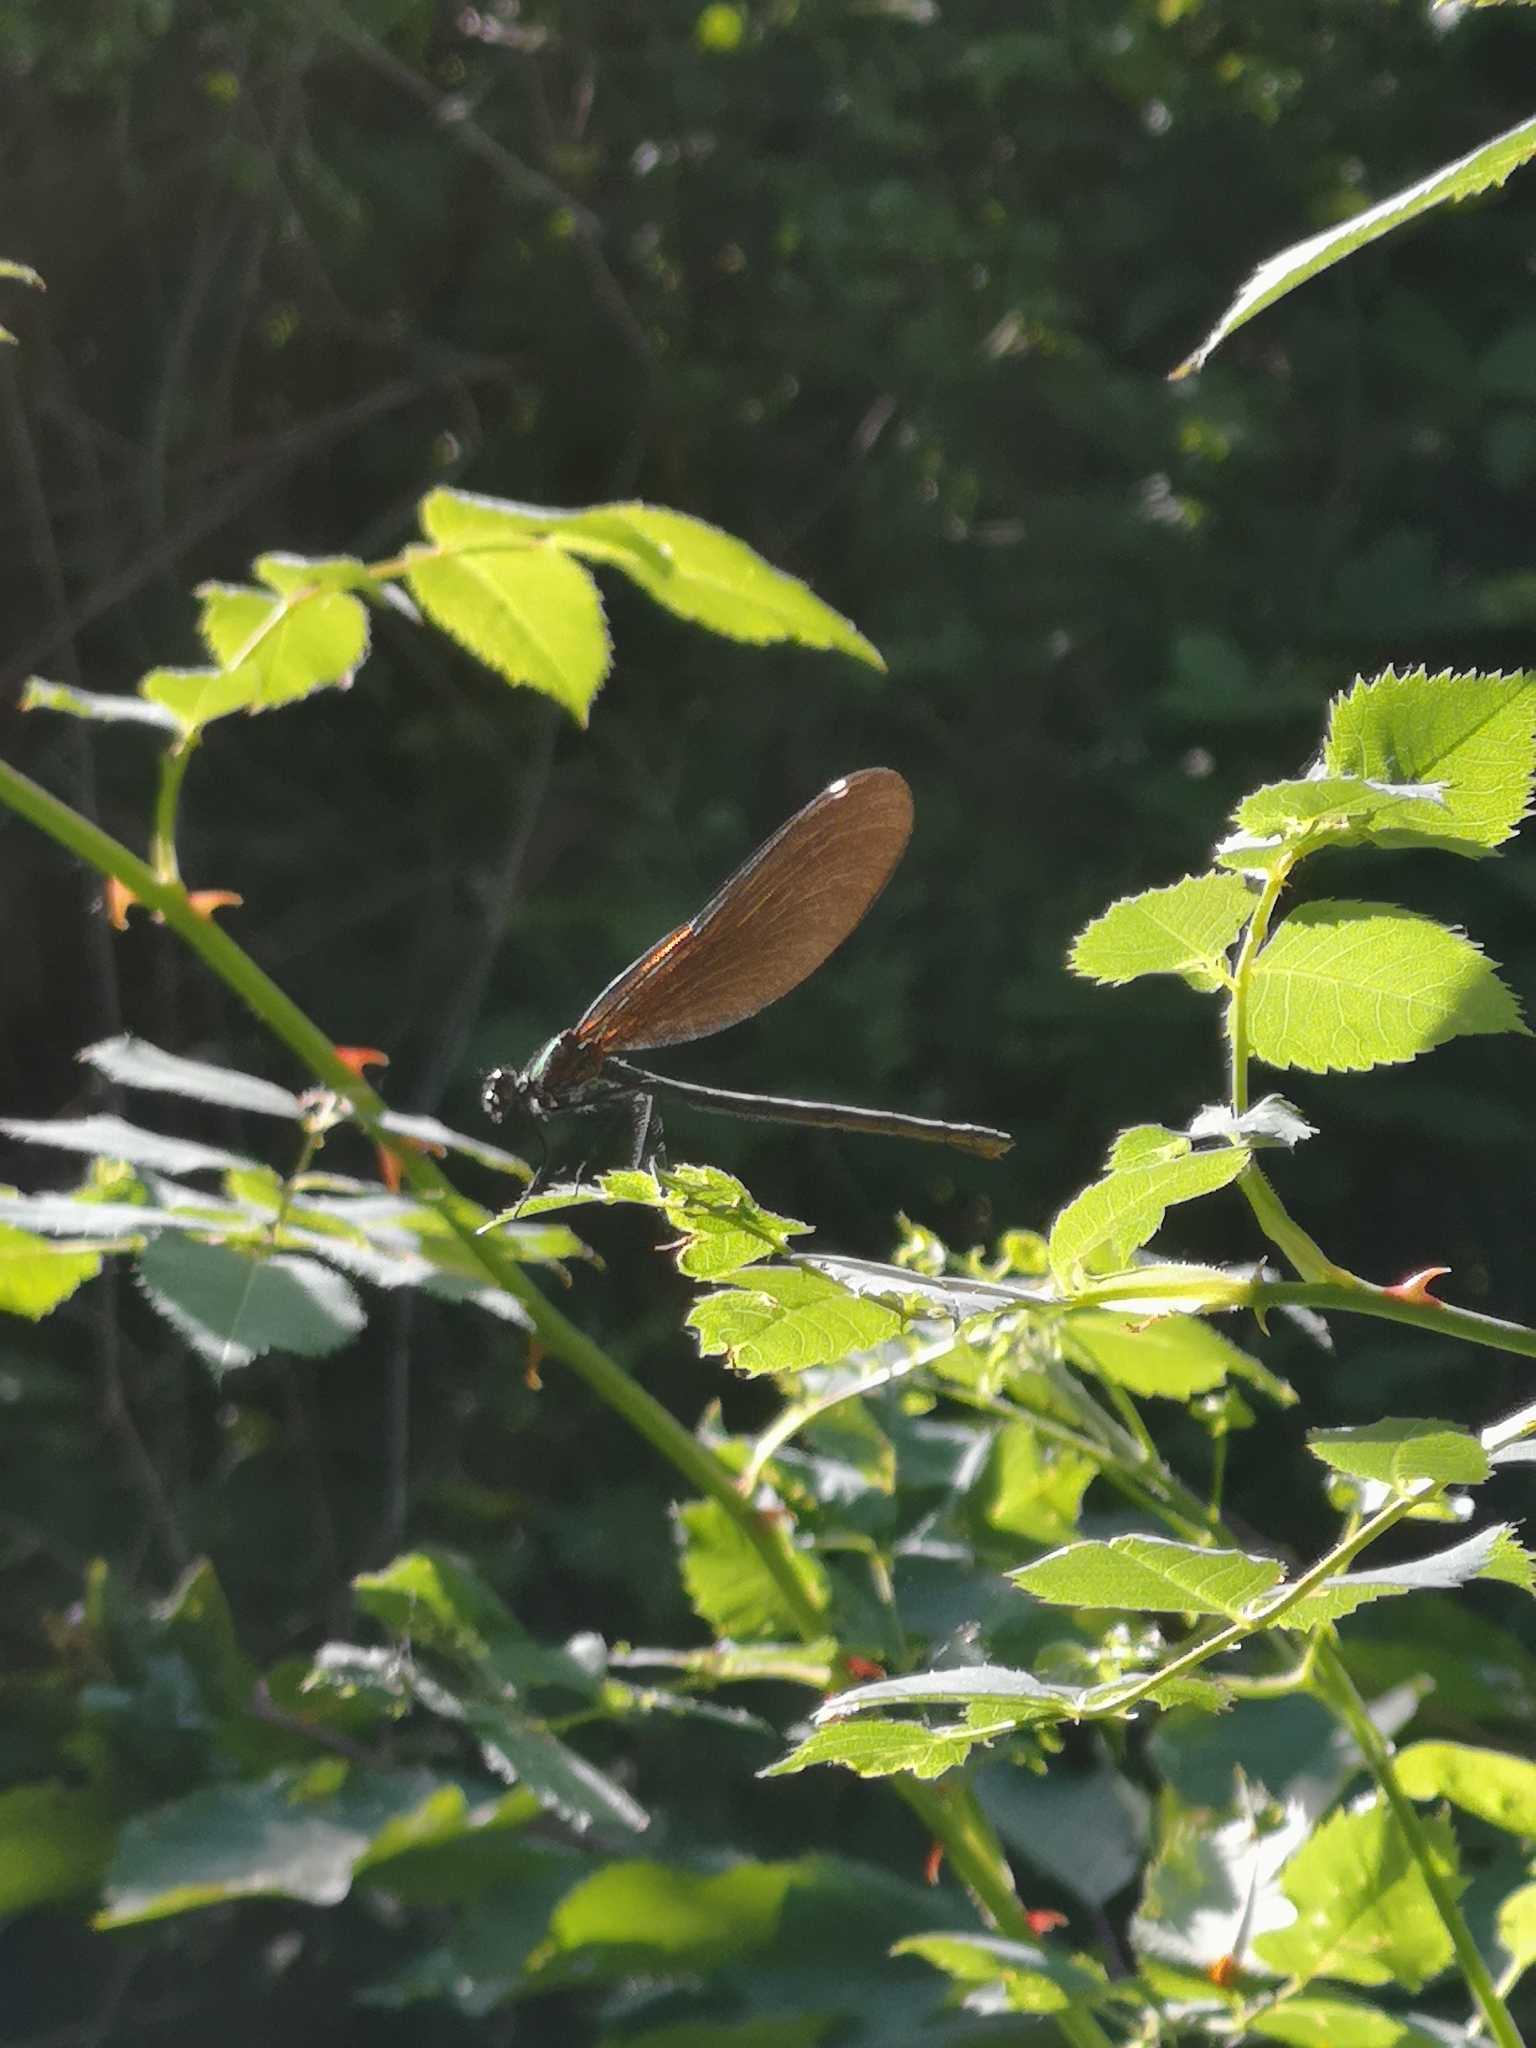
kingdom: Animalia
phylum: Arthropoda
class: Insecta
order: Odonata
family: Calopterygidae
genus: Calopteryx
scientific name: Calopteryx virgo
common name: Beautiful demoiselle
